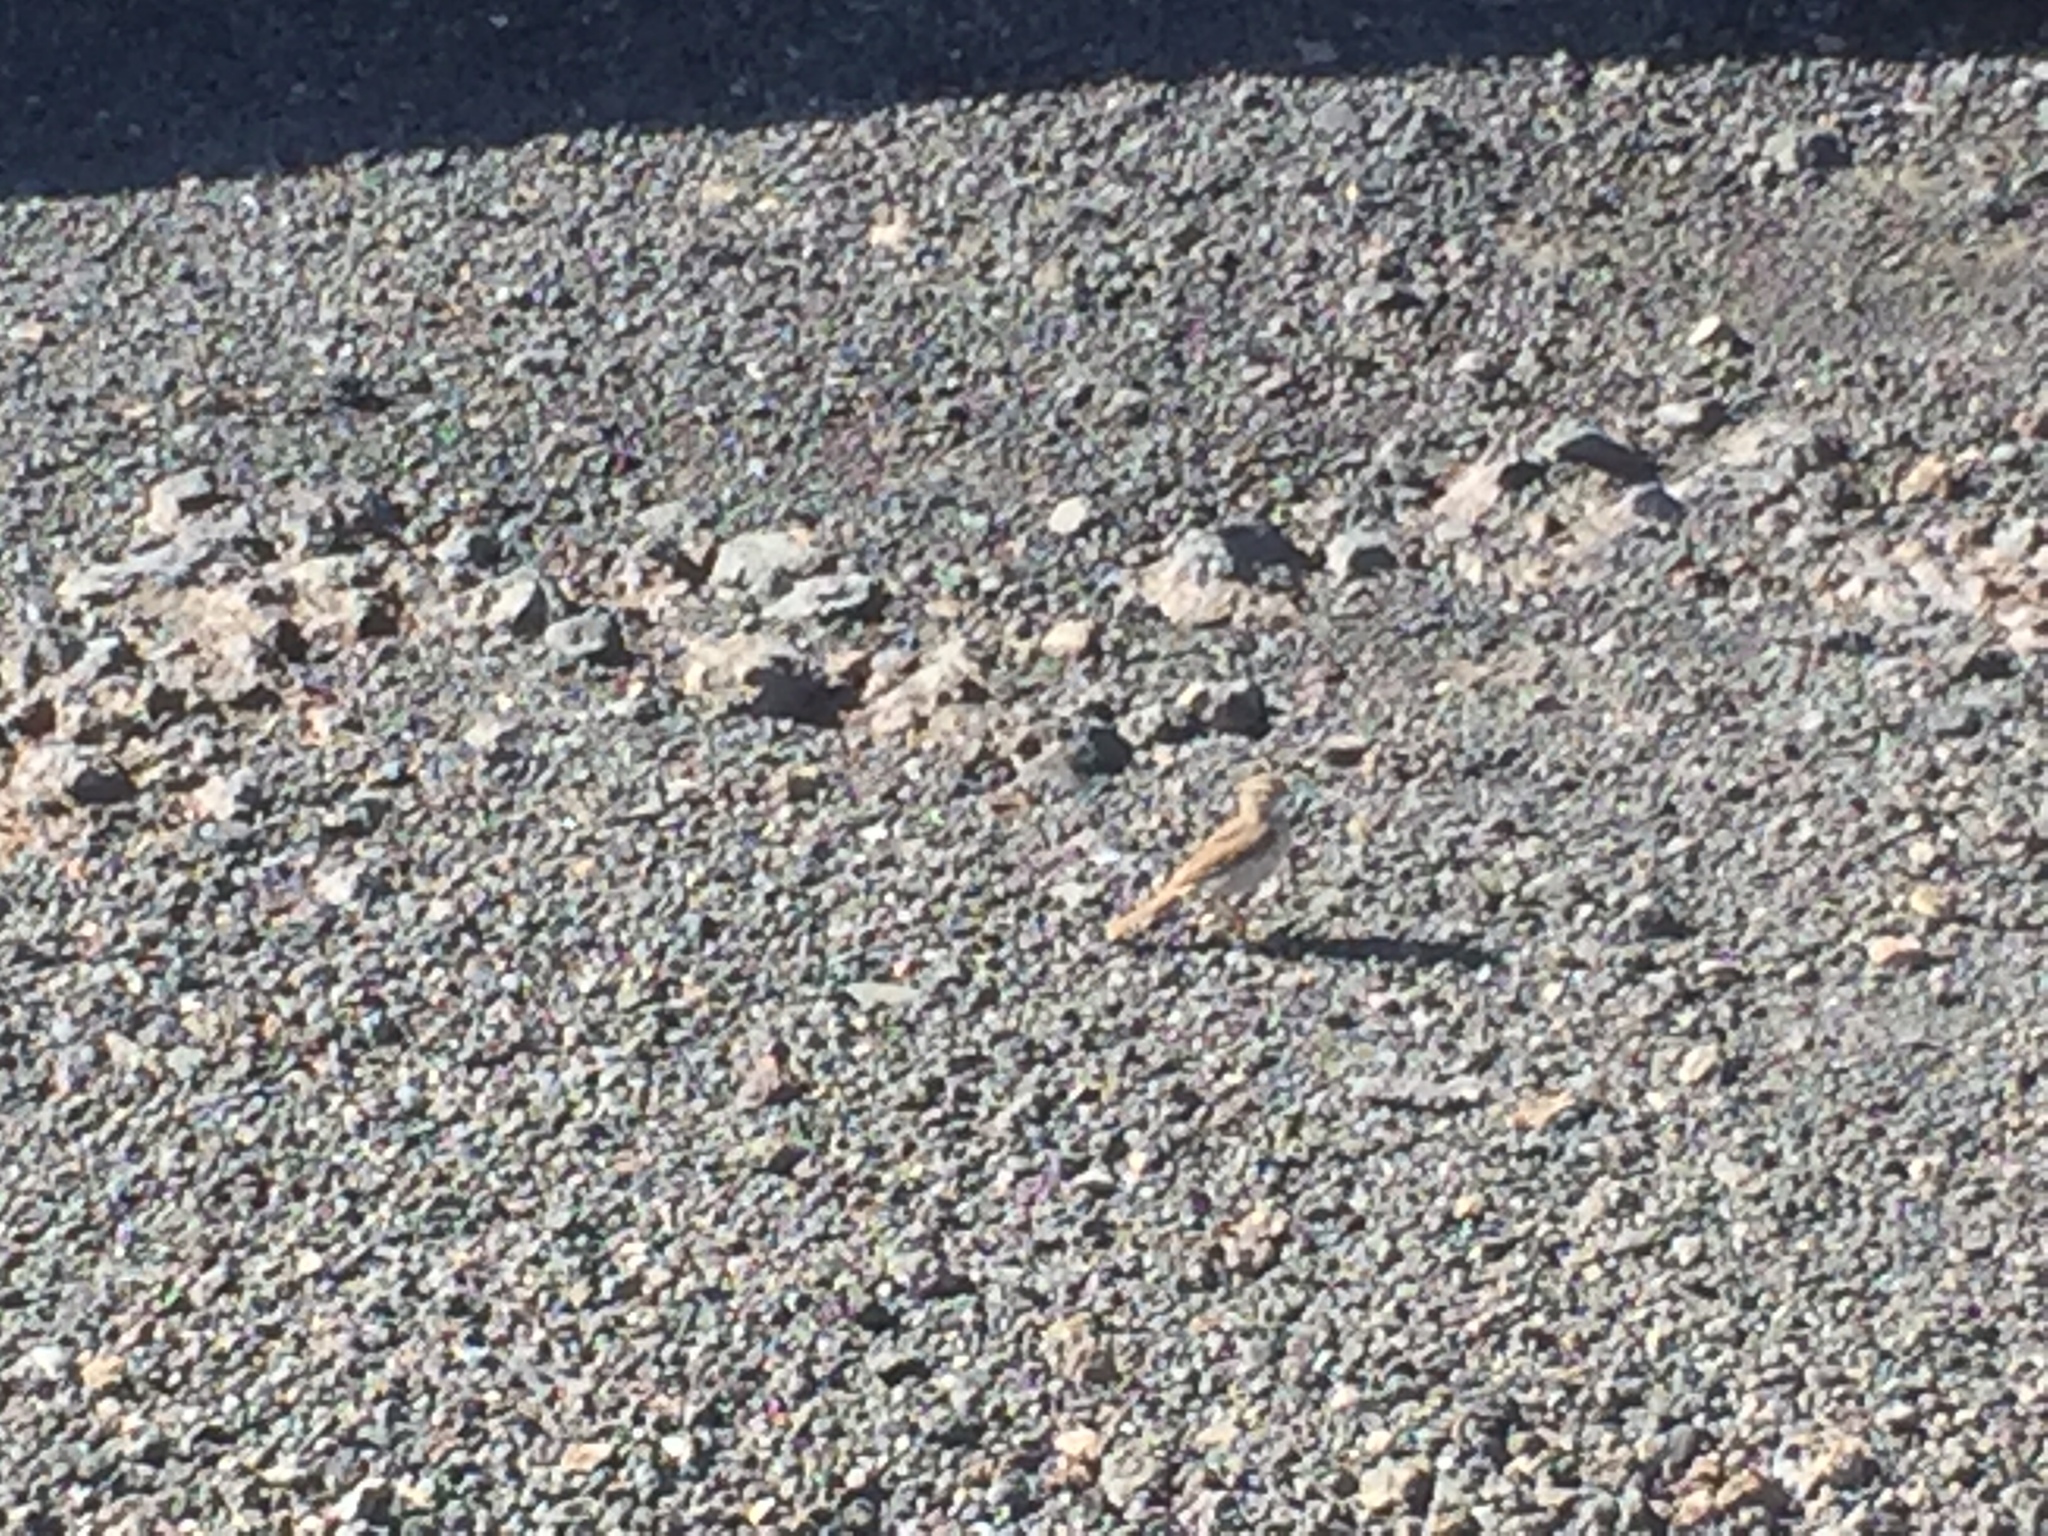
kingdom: Animalia
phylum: Chordata
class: Aves
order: Passeriformes
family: Motacillidae
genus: Anthus
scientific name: Anthus berthelotii
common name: Berthelot's pipit
